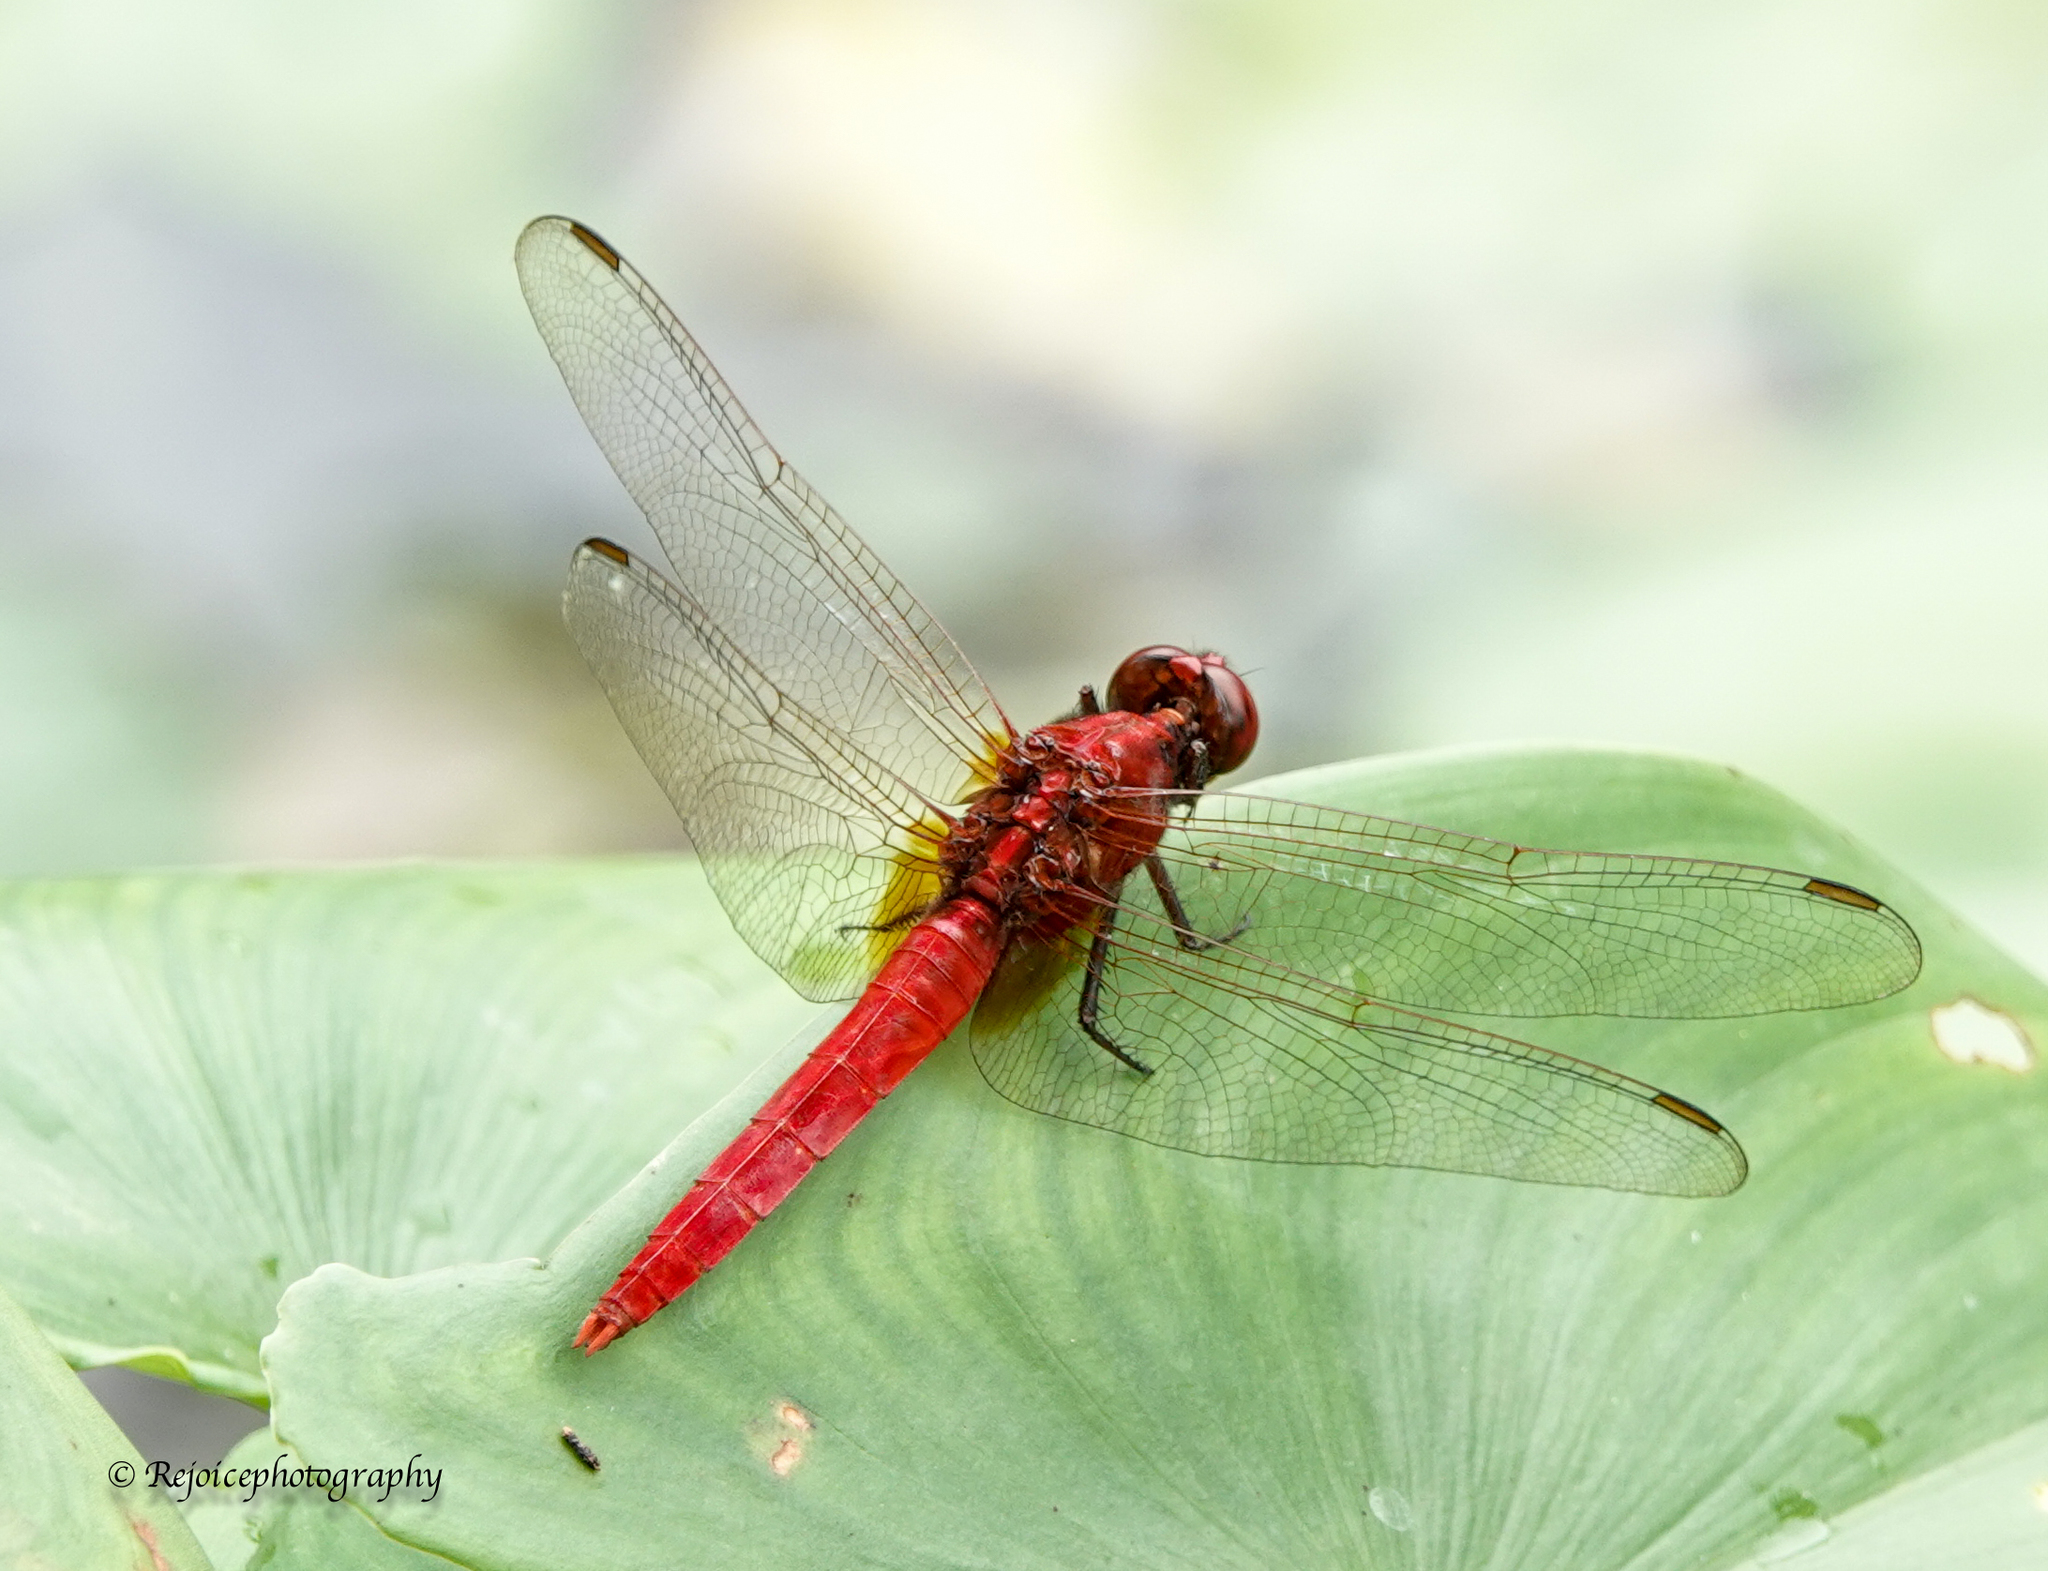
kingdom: Animalia
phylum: Arthropoda
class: Insecta
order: Odonata
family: Libellulidae
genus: Rhodothemis
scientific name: Rhodothemis rufa
